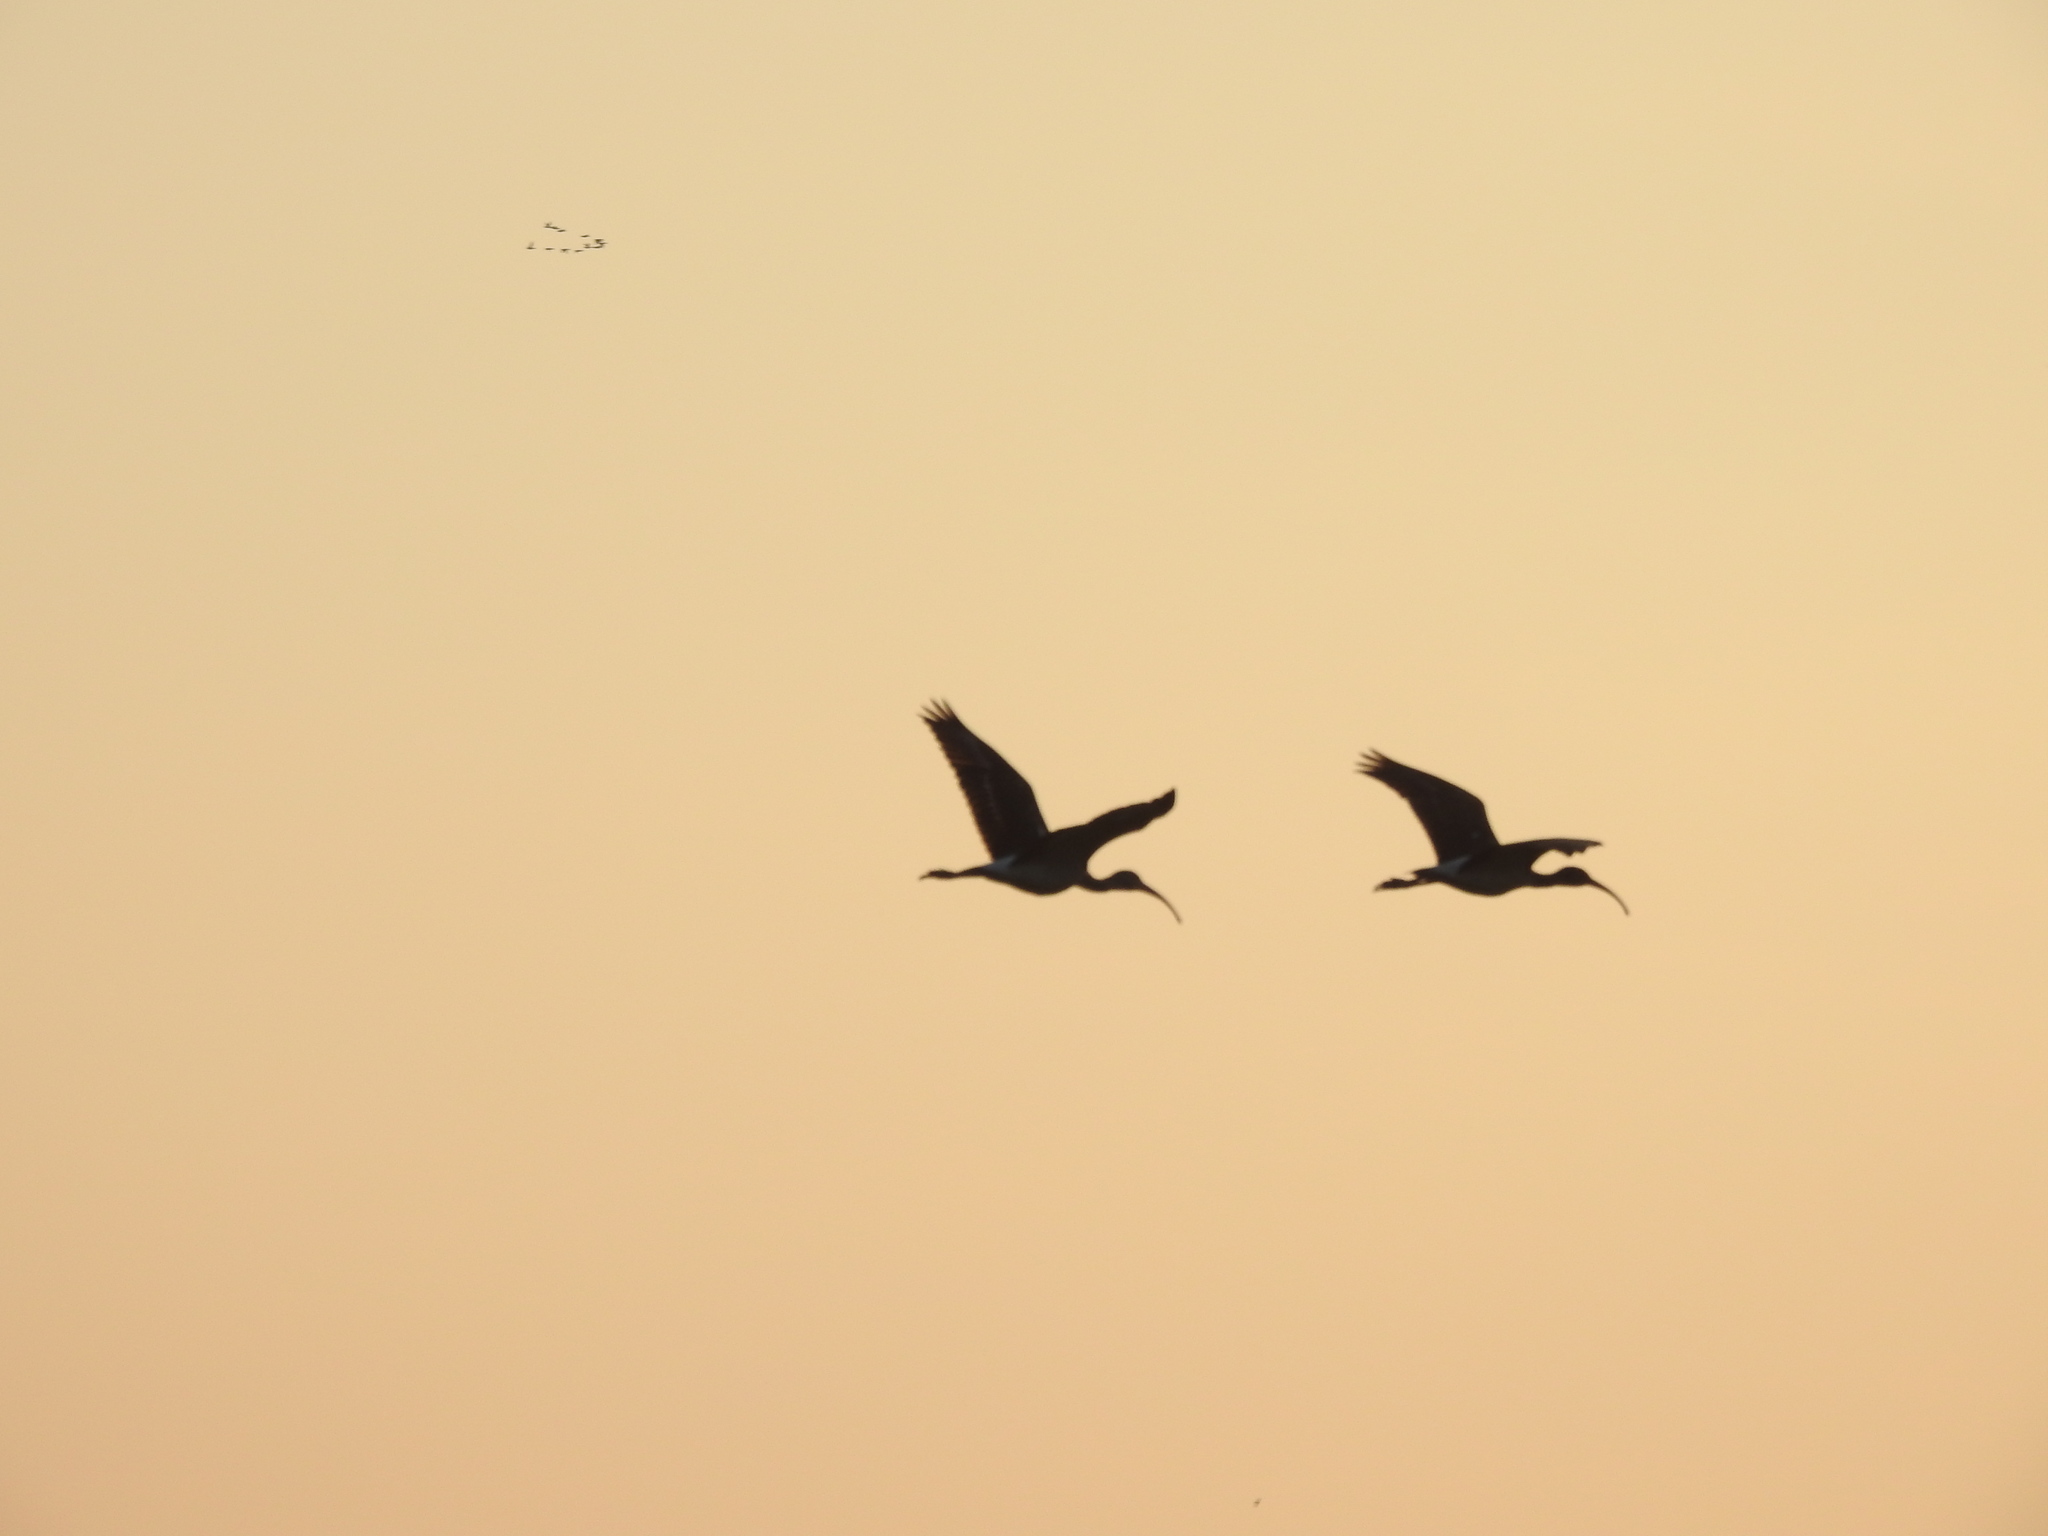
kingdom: Animalia
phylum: Chordata
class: Aves
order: Pelecaniformes
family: Threskiornithidae
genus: Eudocimus
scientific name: Eudocimus albus
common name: White ibis
